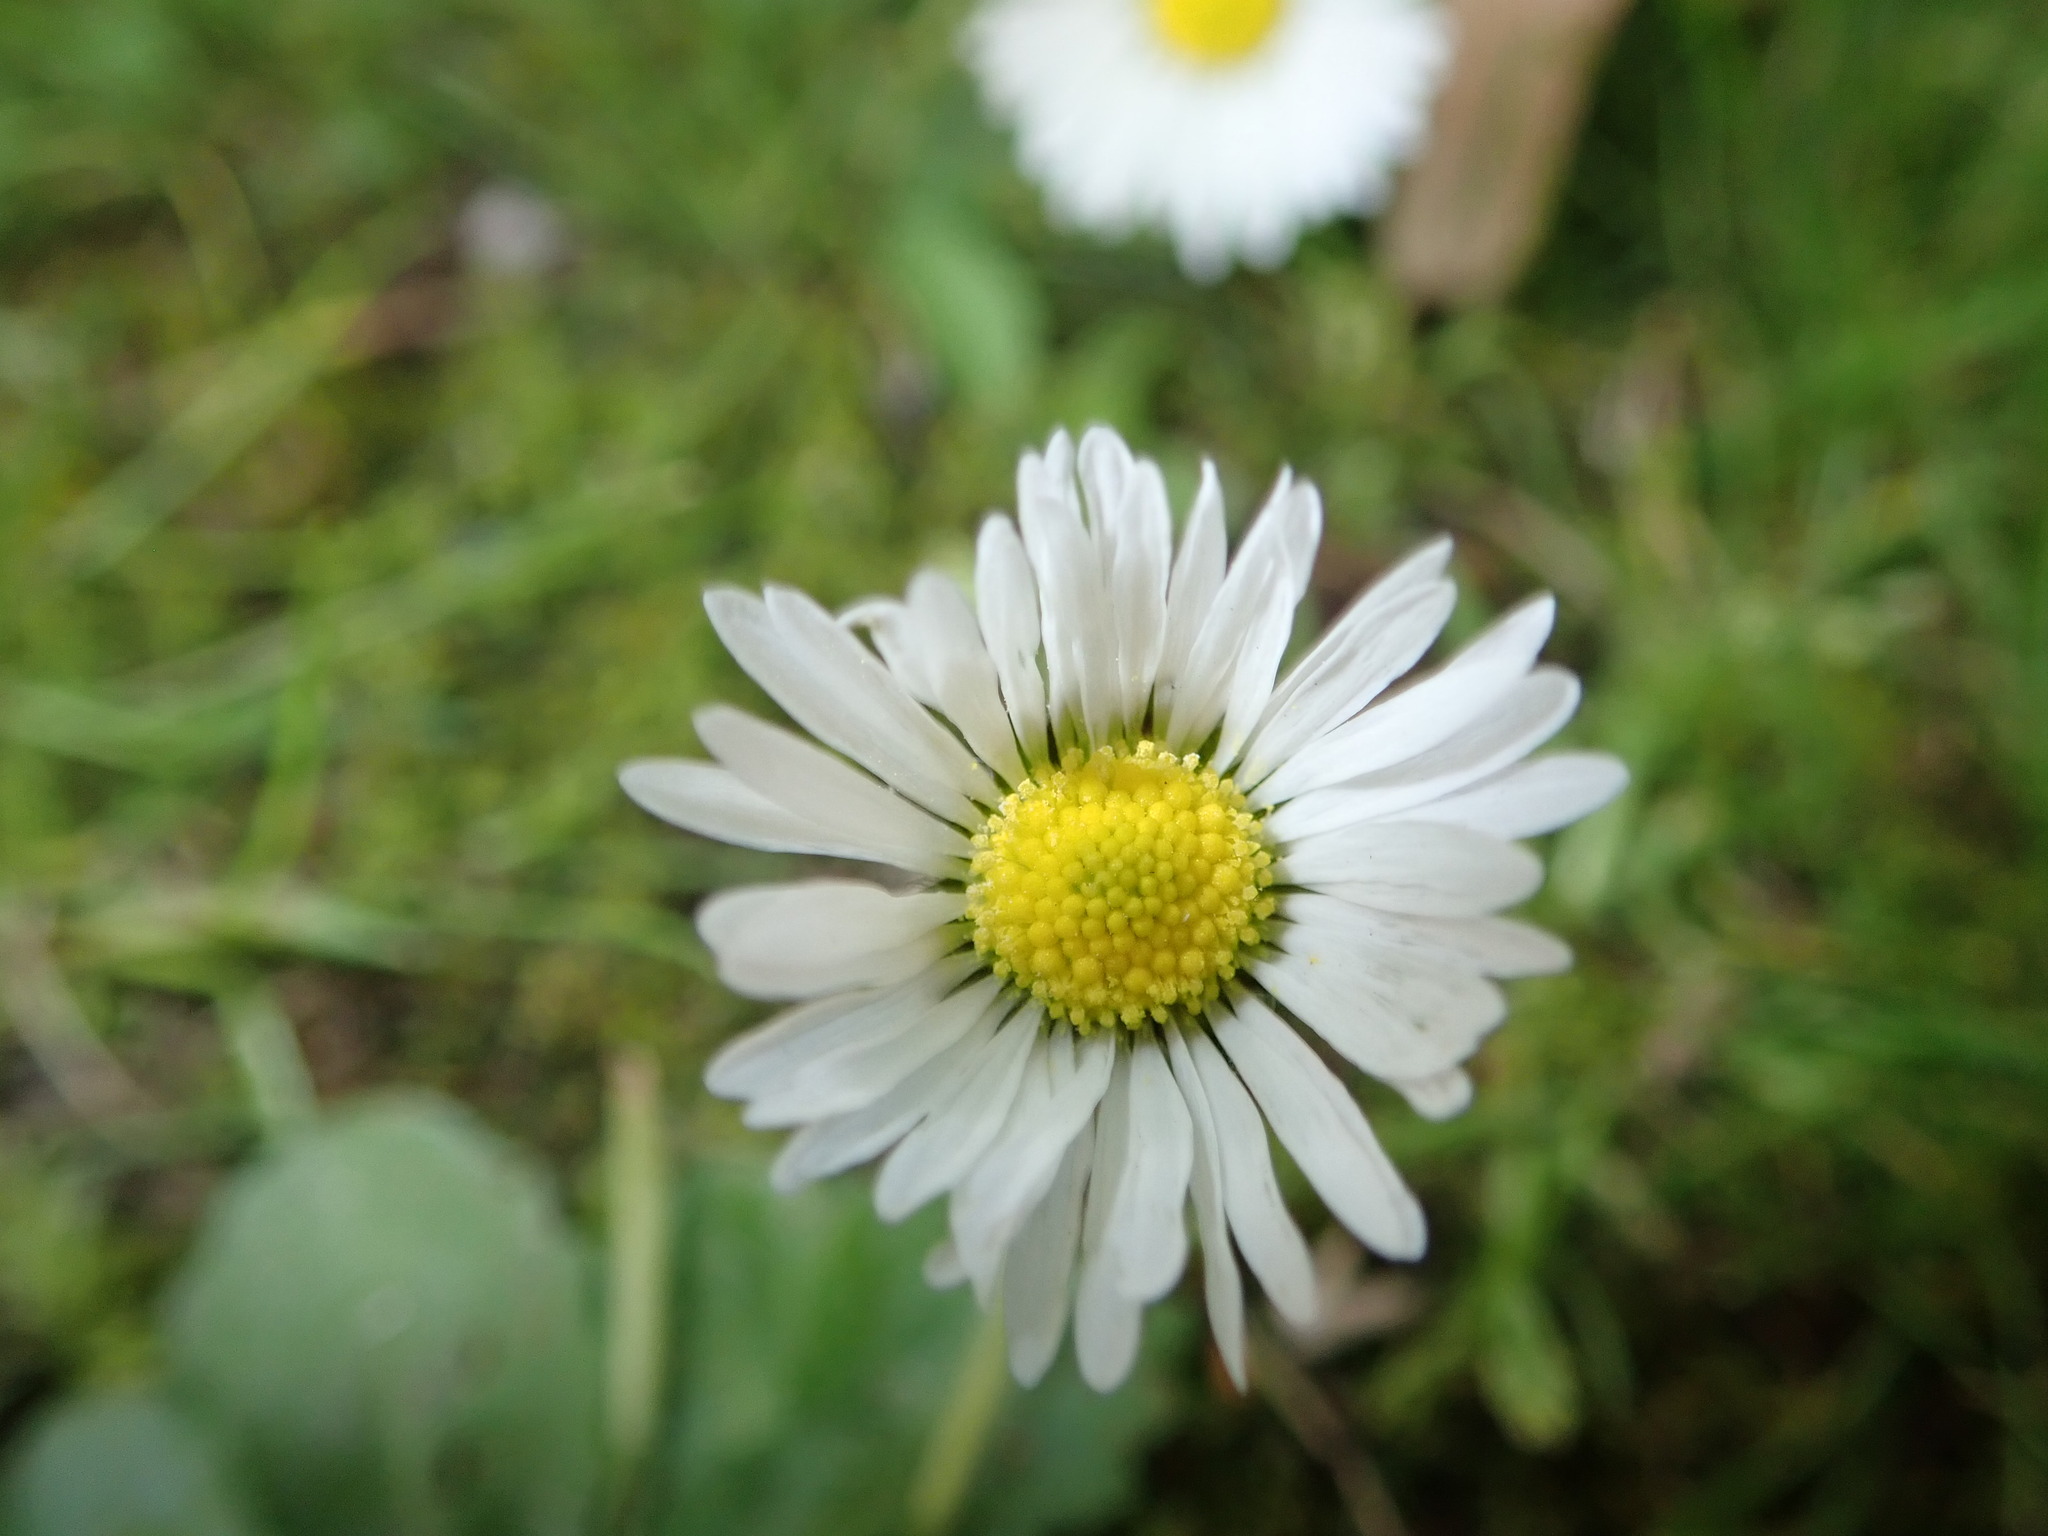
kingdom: Plantae
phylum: Tracheophyta
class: Magnoliopsida
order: Asterales
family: Asteraceae
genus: Bellis
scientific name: Bellis perennis
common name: Lawndaisy
